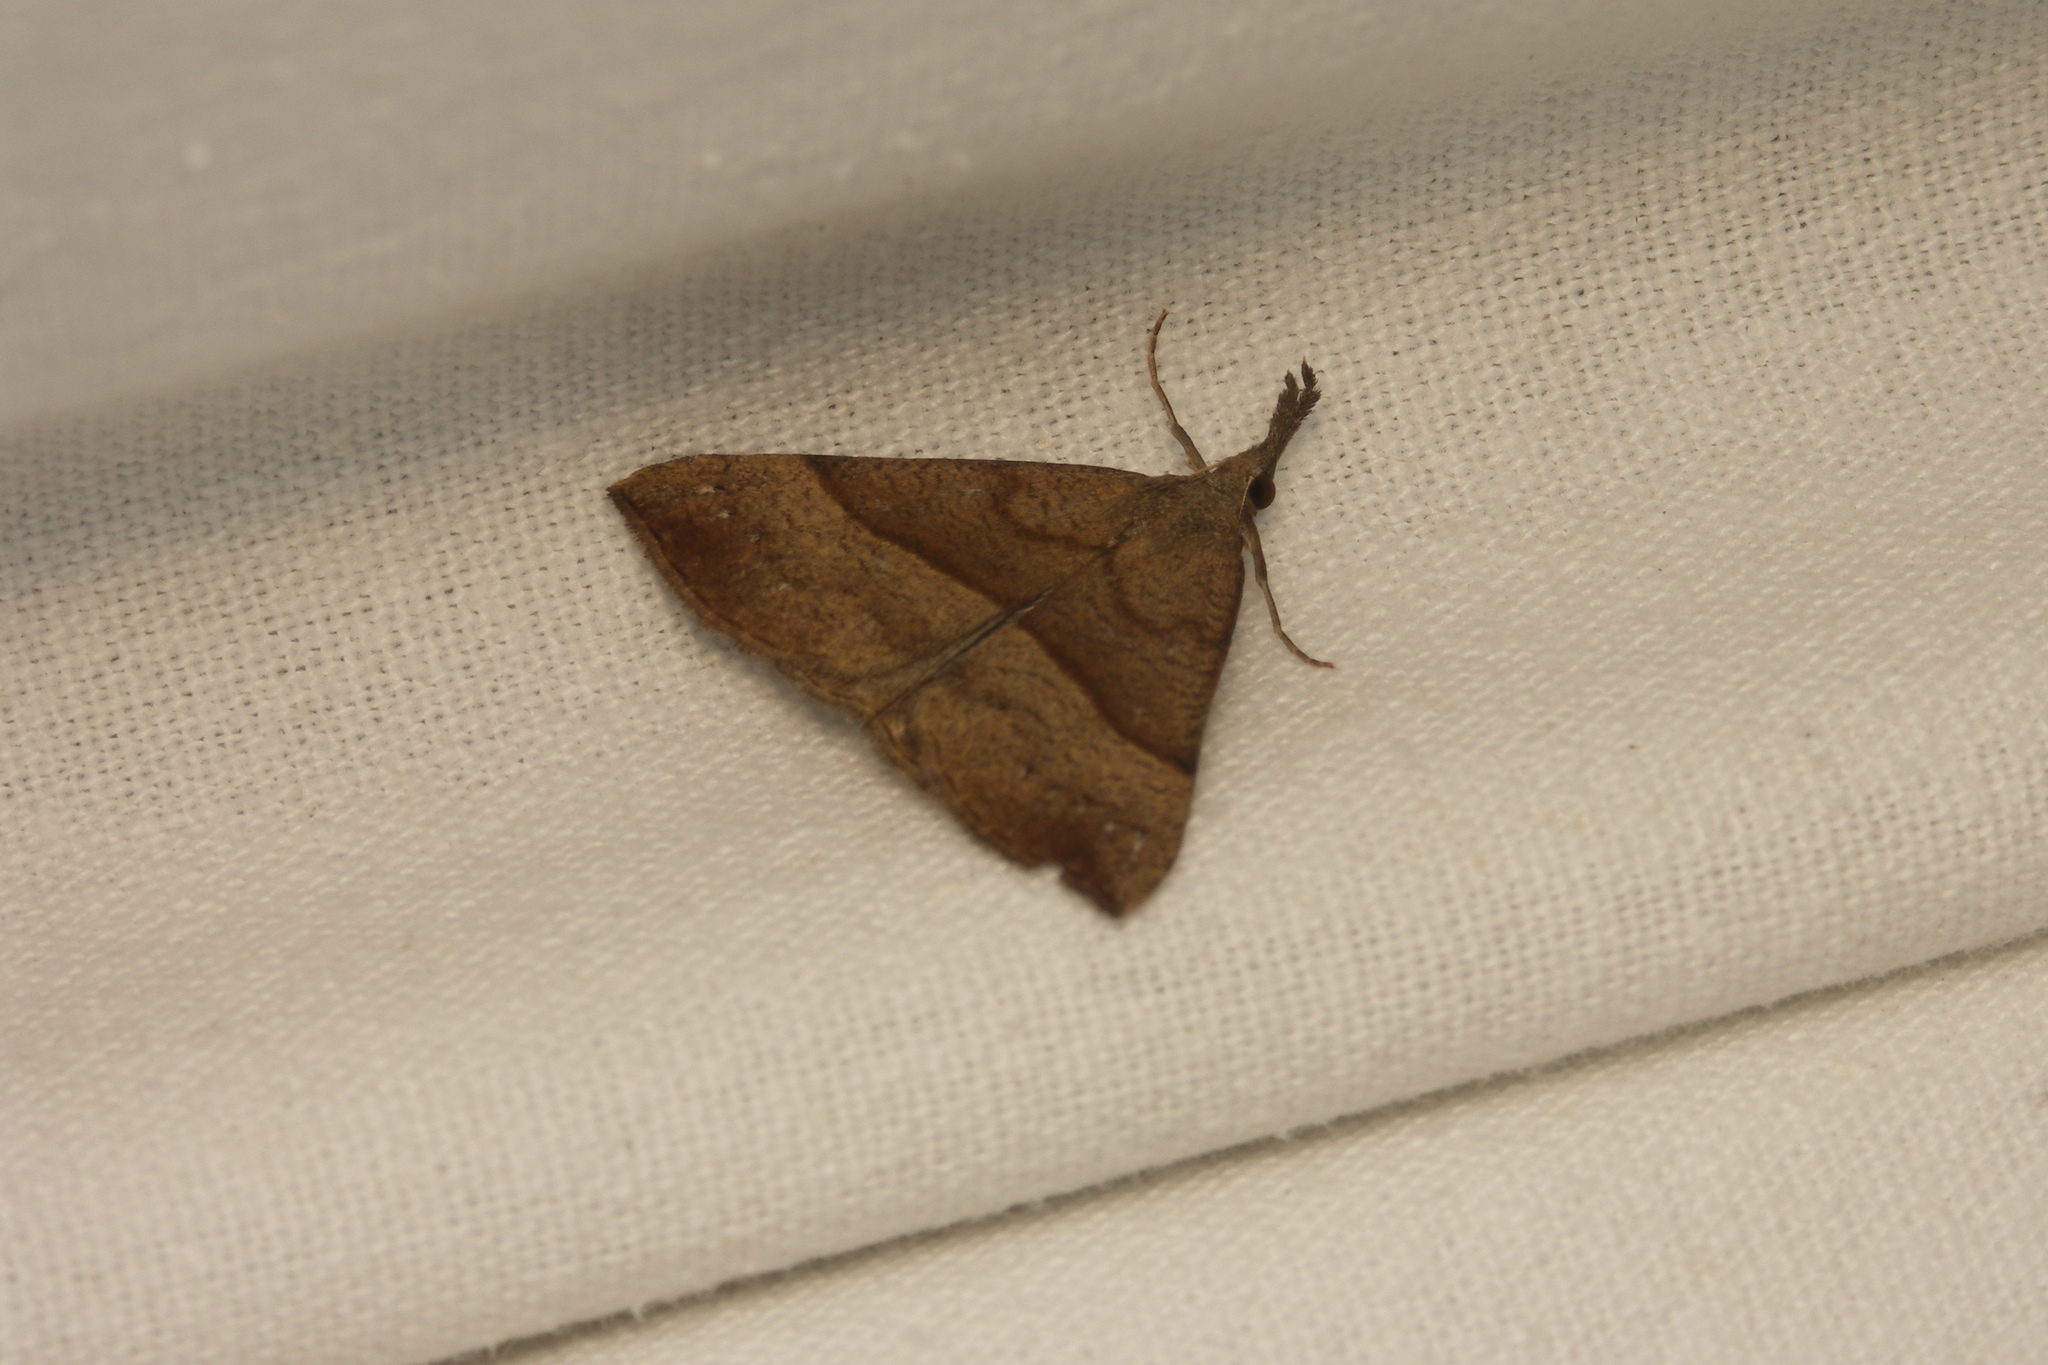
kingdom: Animalia
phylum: Arthropoda
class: Insecta
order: Lepidoptera
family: Erebidae
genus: Hypena
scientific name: Hypena proboscidalis
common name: Snout
